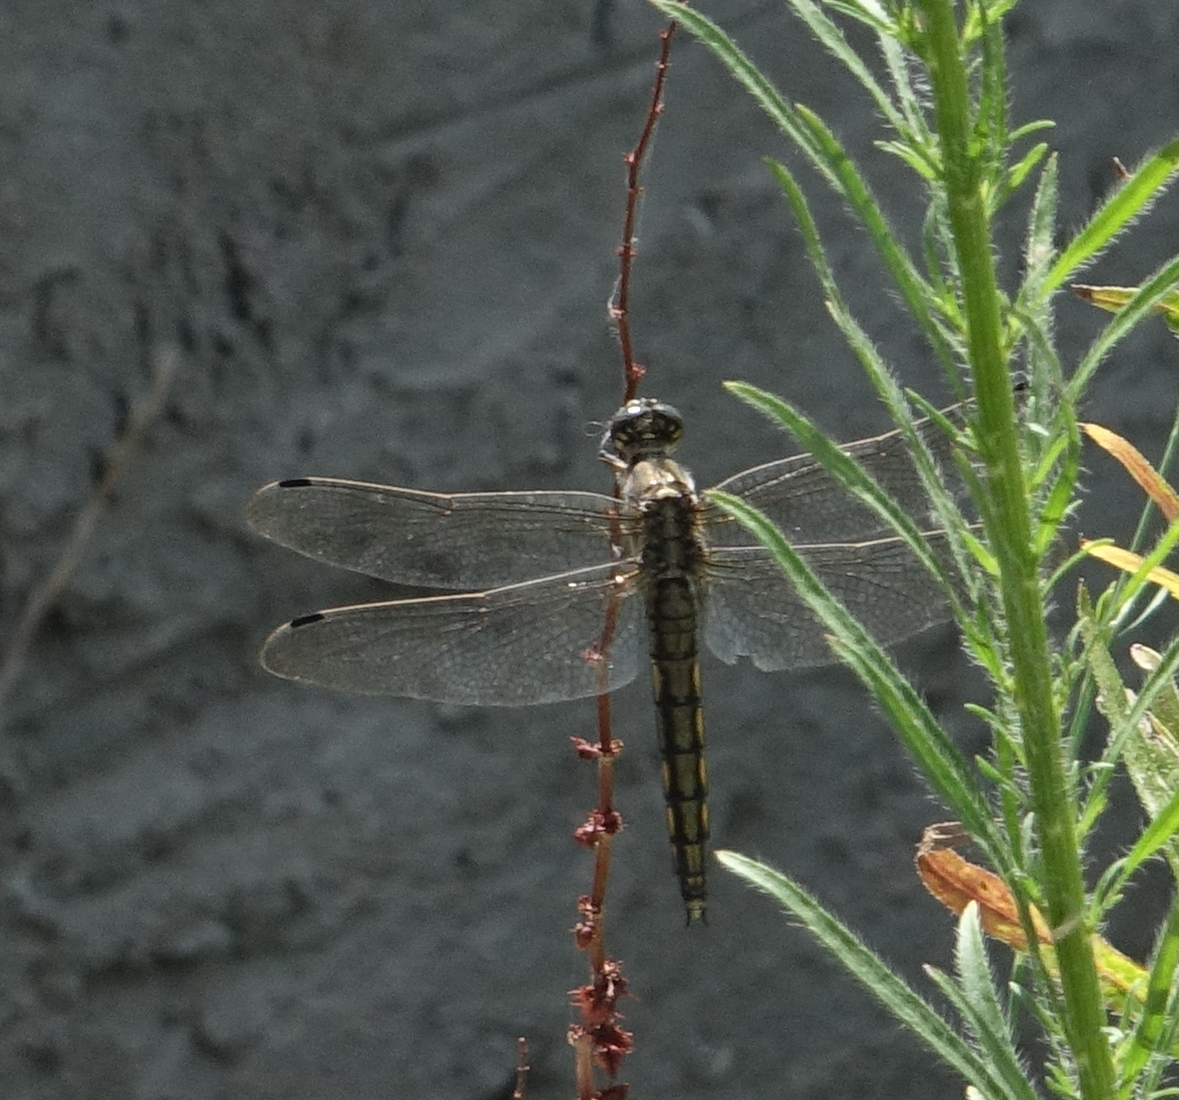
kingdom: Animalia
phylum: Arthropoda
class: Insecta
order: Odonata
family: Libellulidae
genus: Orthetrum
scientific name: Orthetrum cancellatum
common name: Black-tailed skimmer
